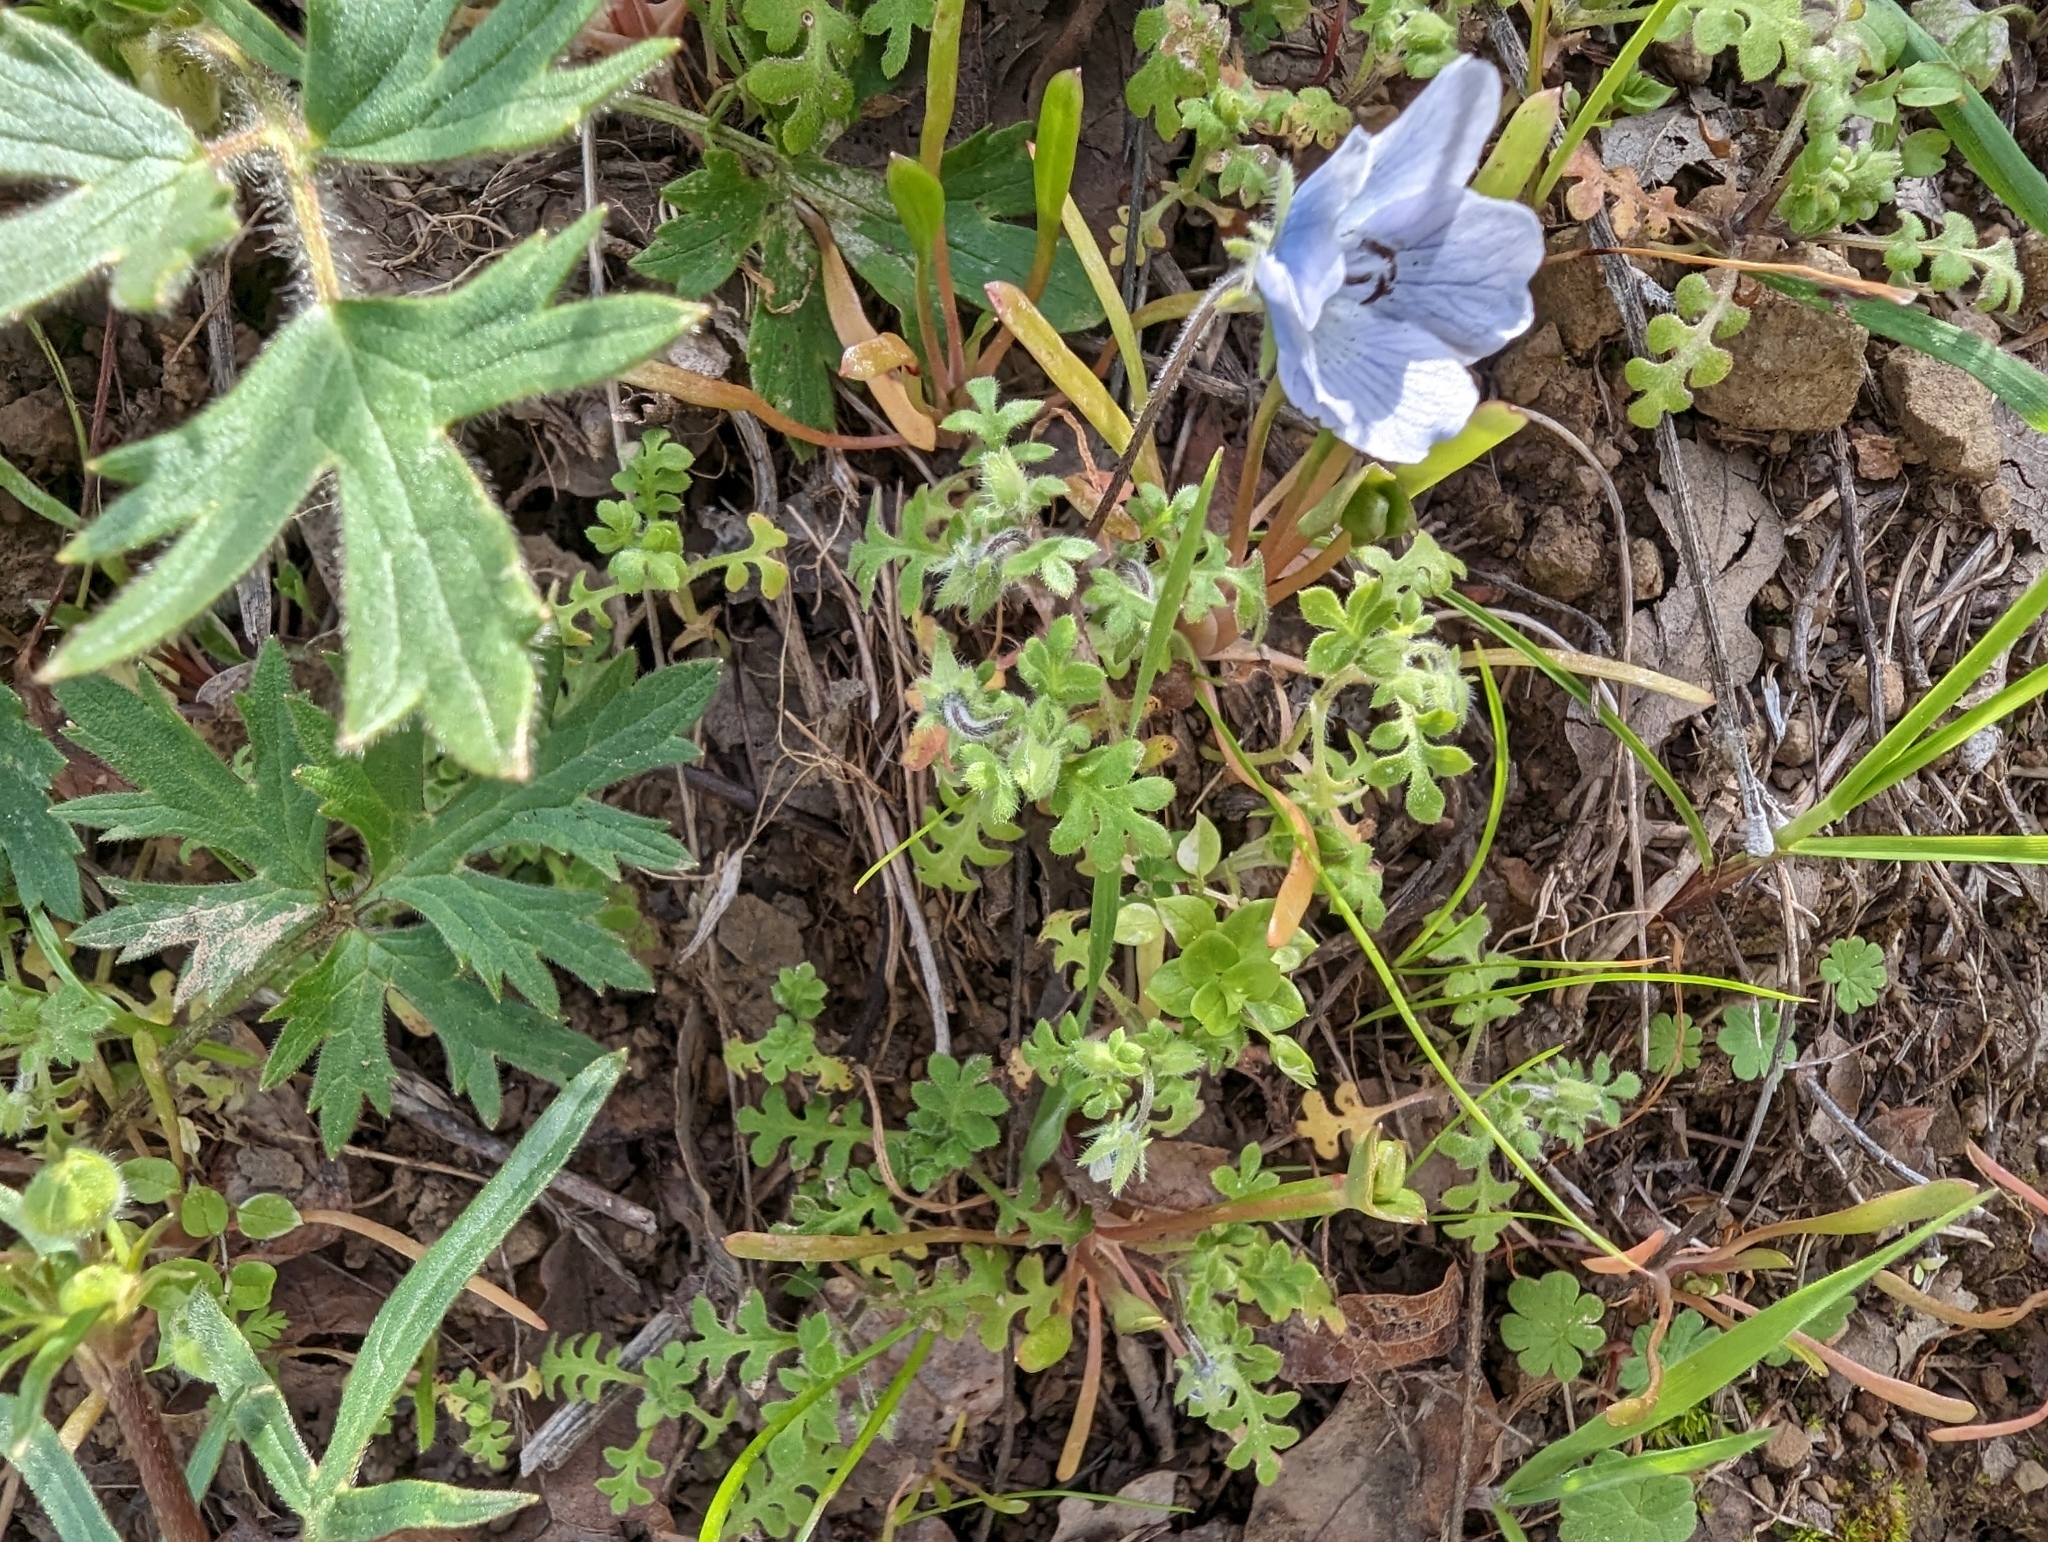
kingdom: Plantae
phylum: Tracheophyta
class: Magnoliopsida
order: Boraginales
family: Hydrophyllaceae
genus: Nemophila
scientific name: Nemophila menziesii
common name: Baby's-blue-eyes
